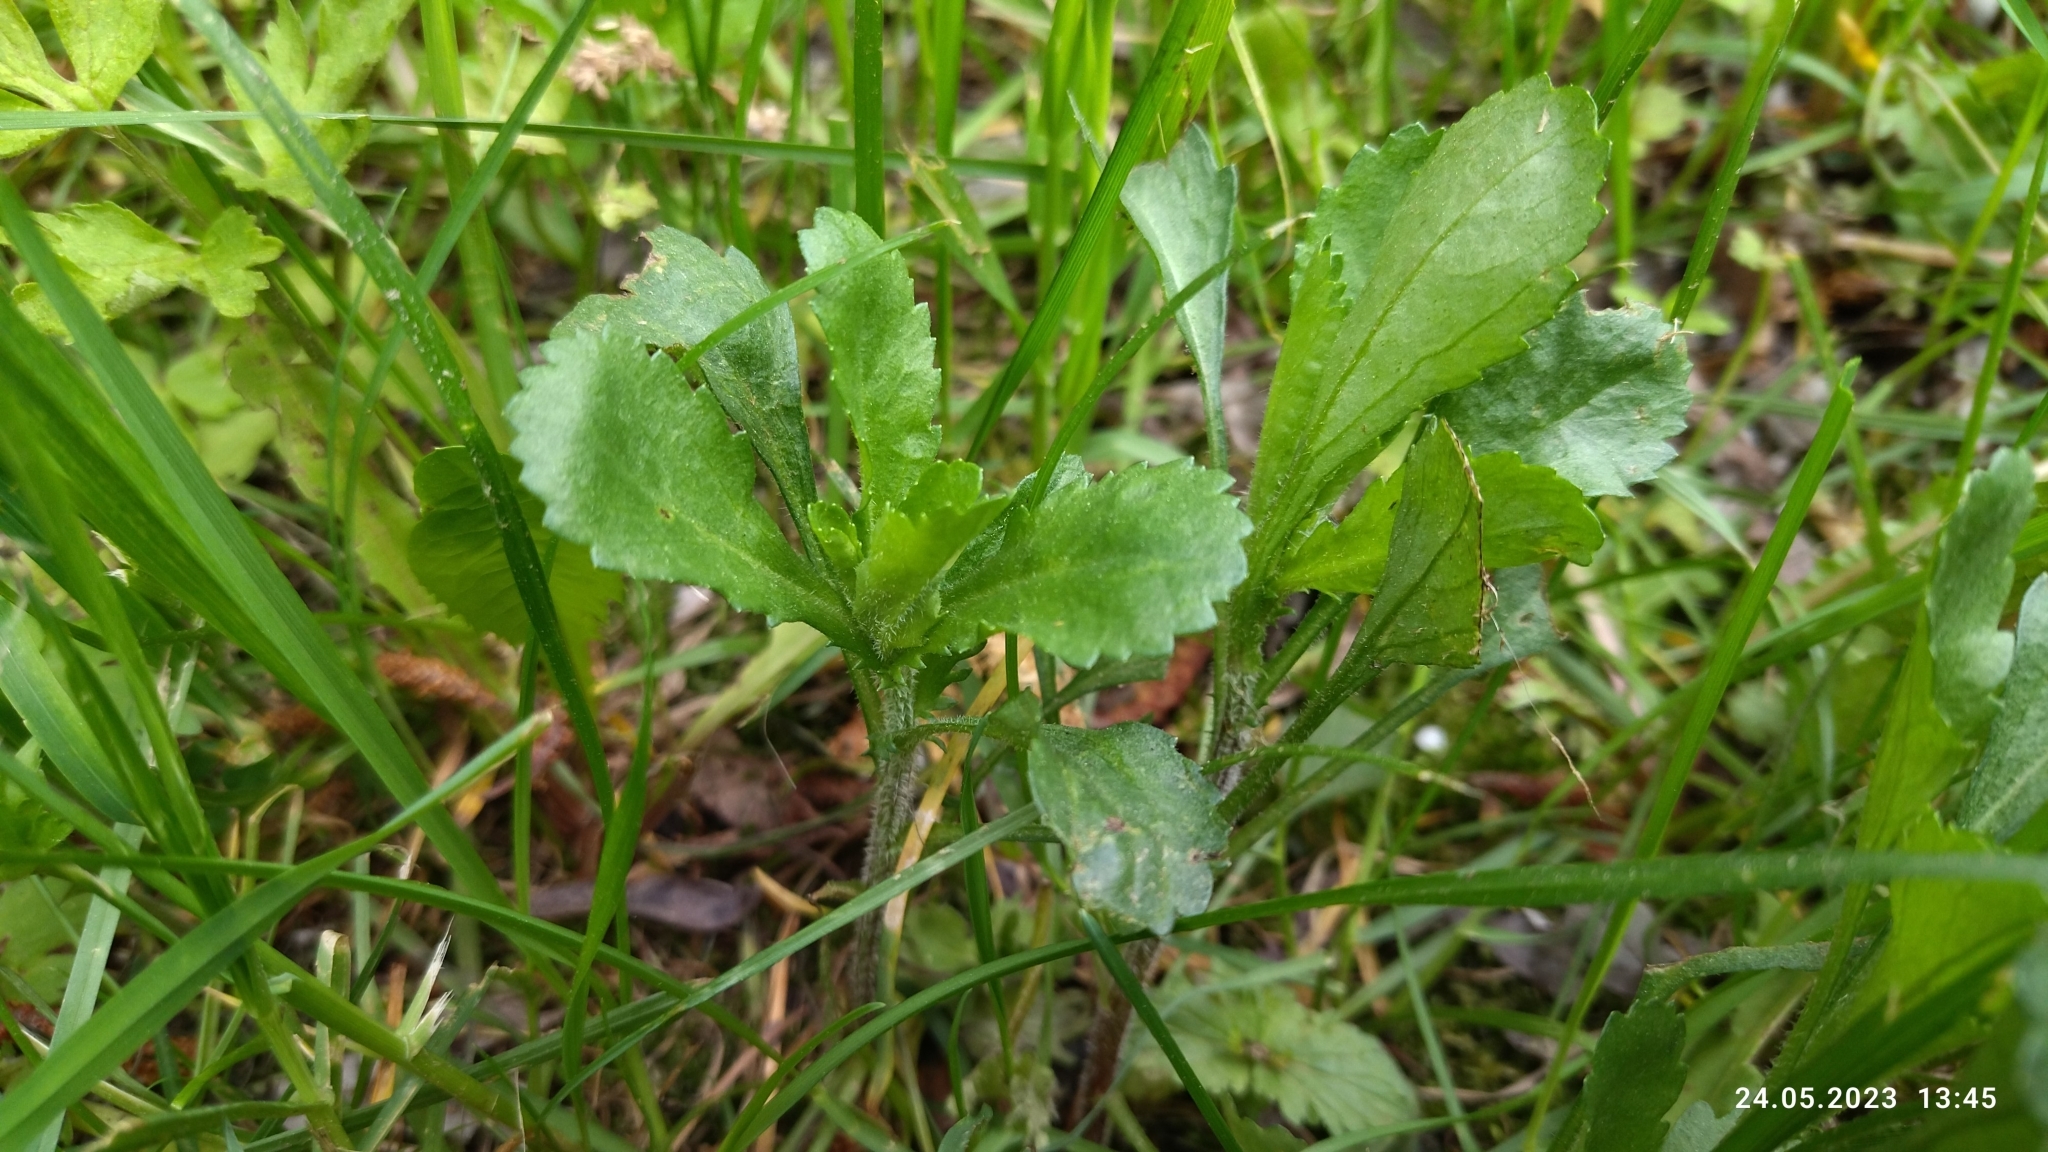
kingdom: Plantae
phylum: Tracheophyta
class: Magnoliopsida
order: Asterales
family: Asteraceae
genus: Leucanthemum
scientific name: Leucanthemum vulgare
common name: Oxeye daisy
